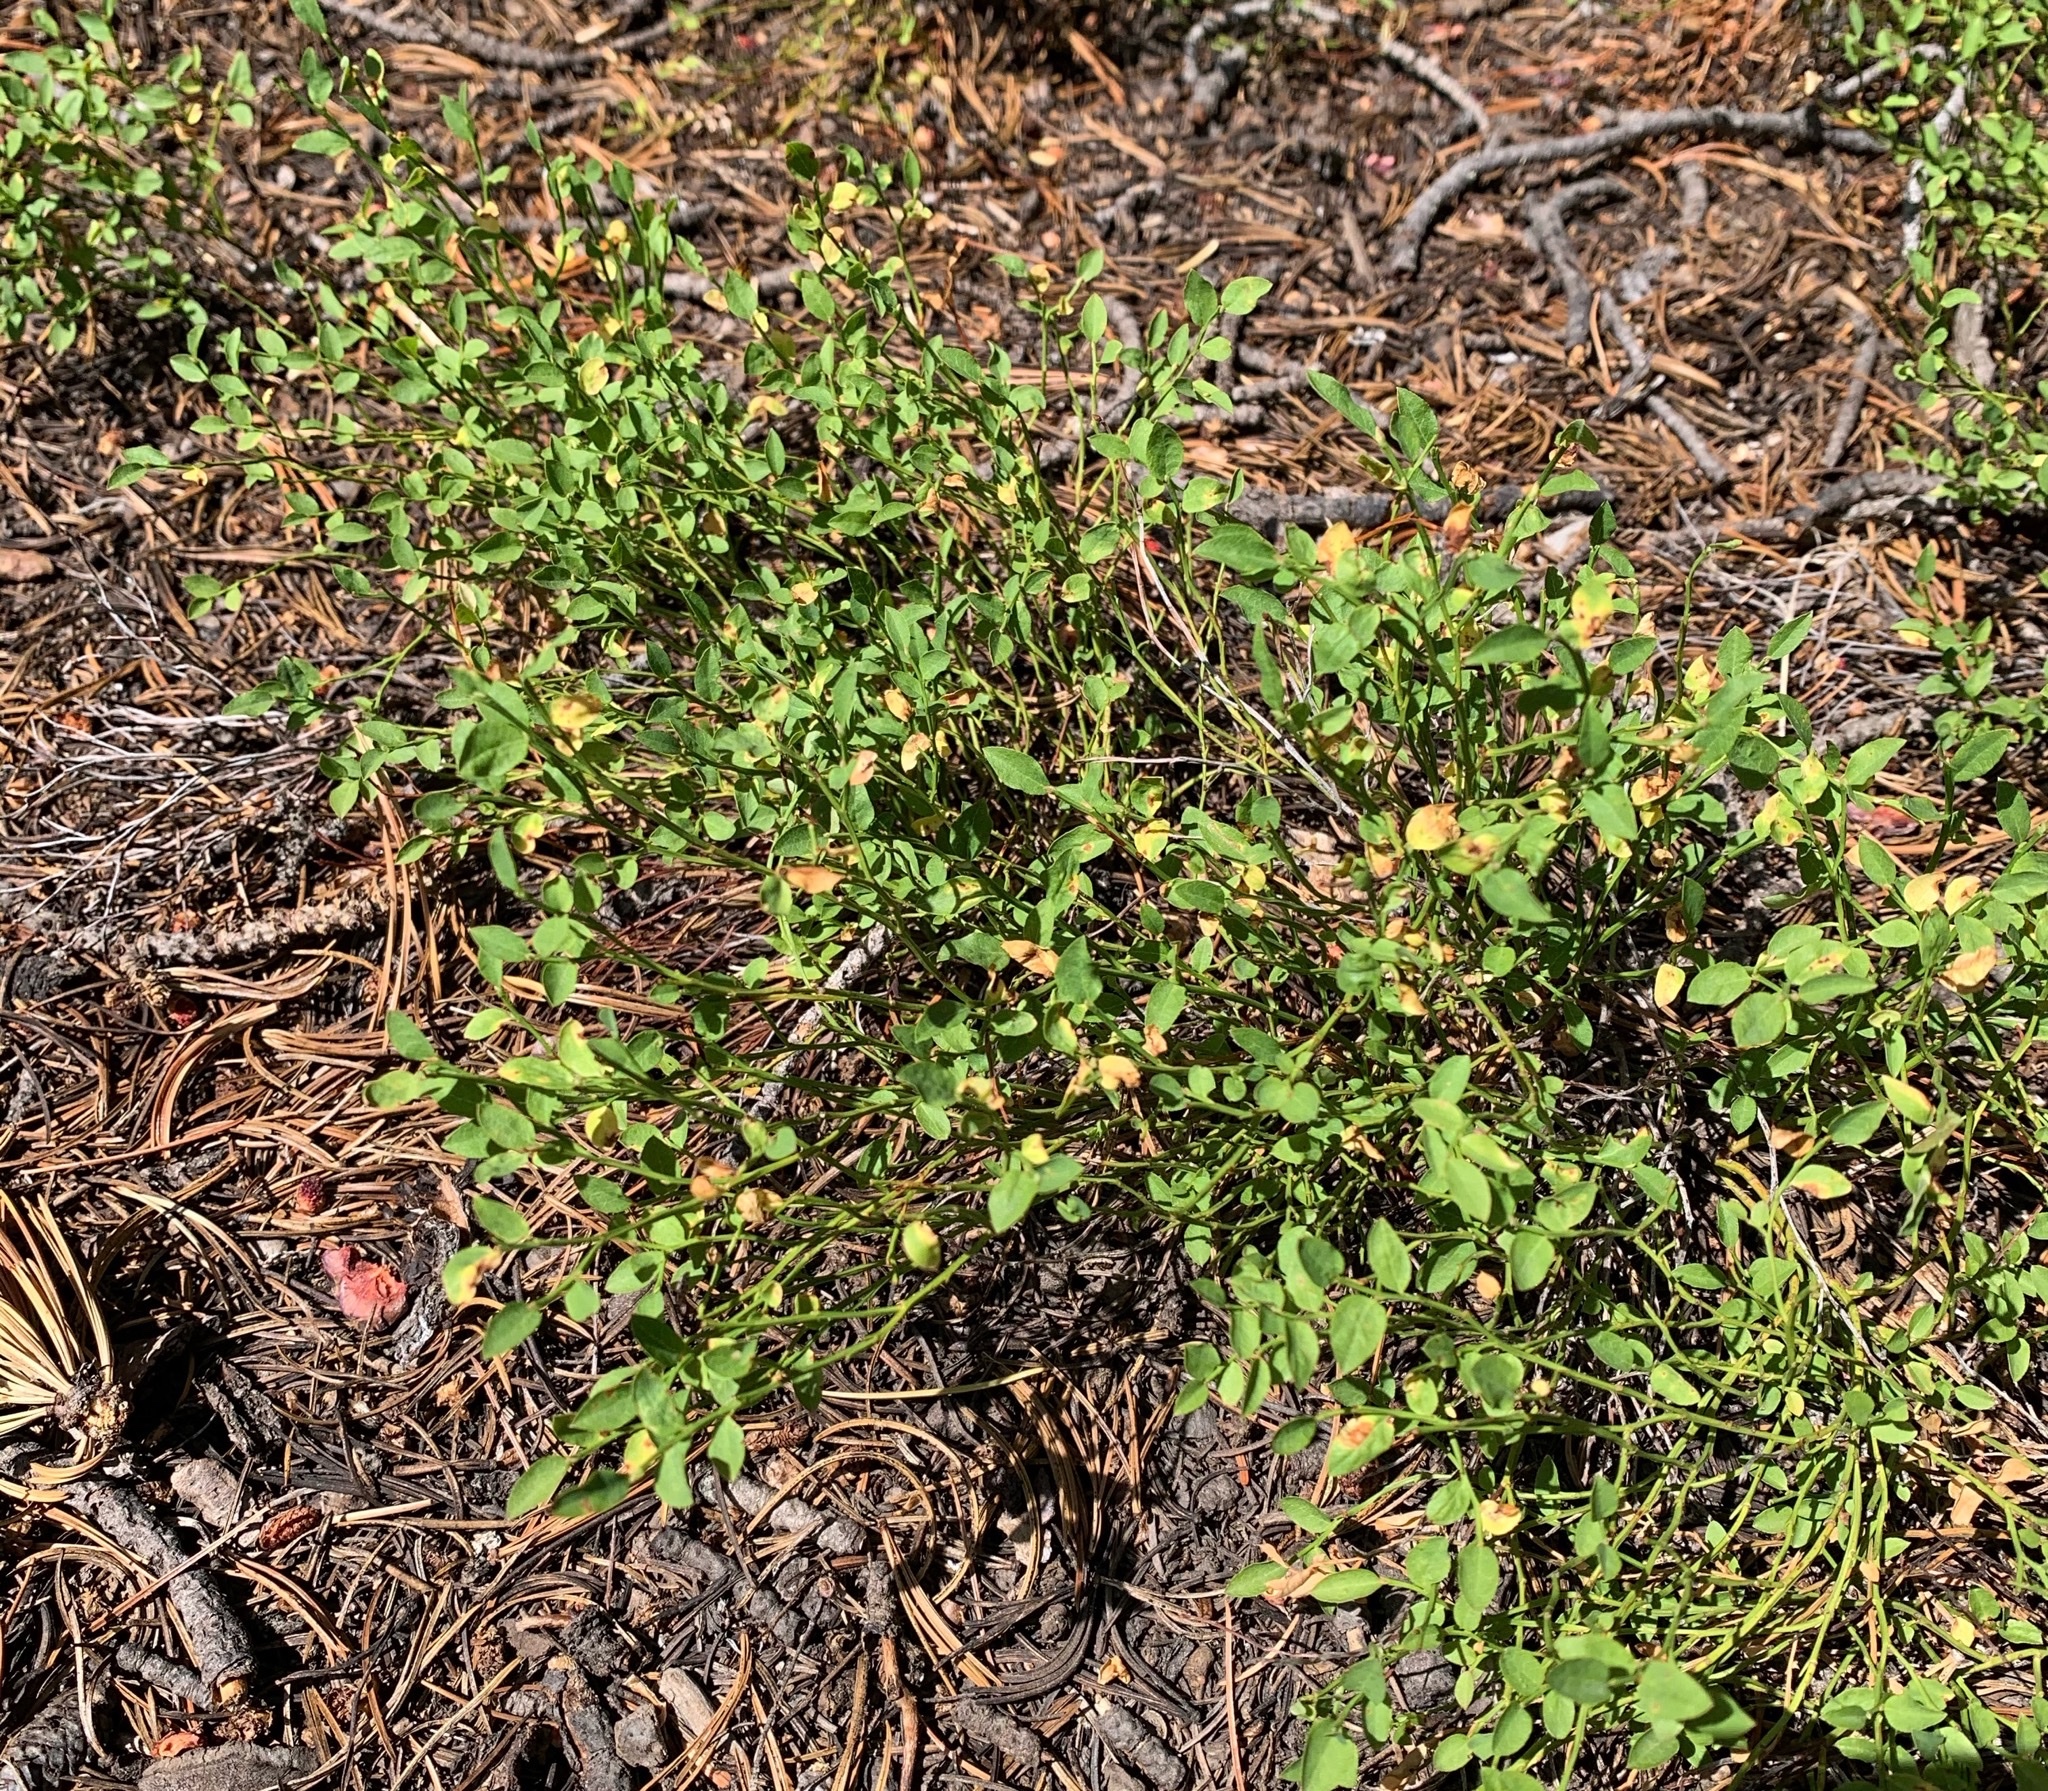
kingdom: Plantae
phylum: Tracheophyta
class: Magnoliopsida
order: Ericales
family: Ericaceae
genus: Vaccinium
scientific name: Vaccinium scoparium
